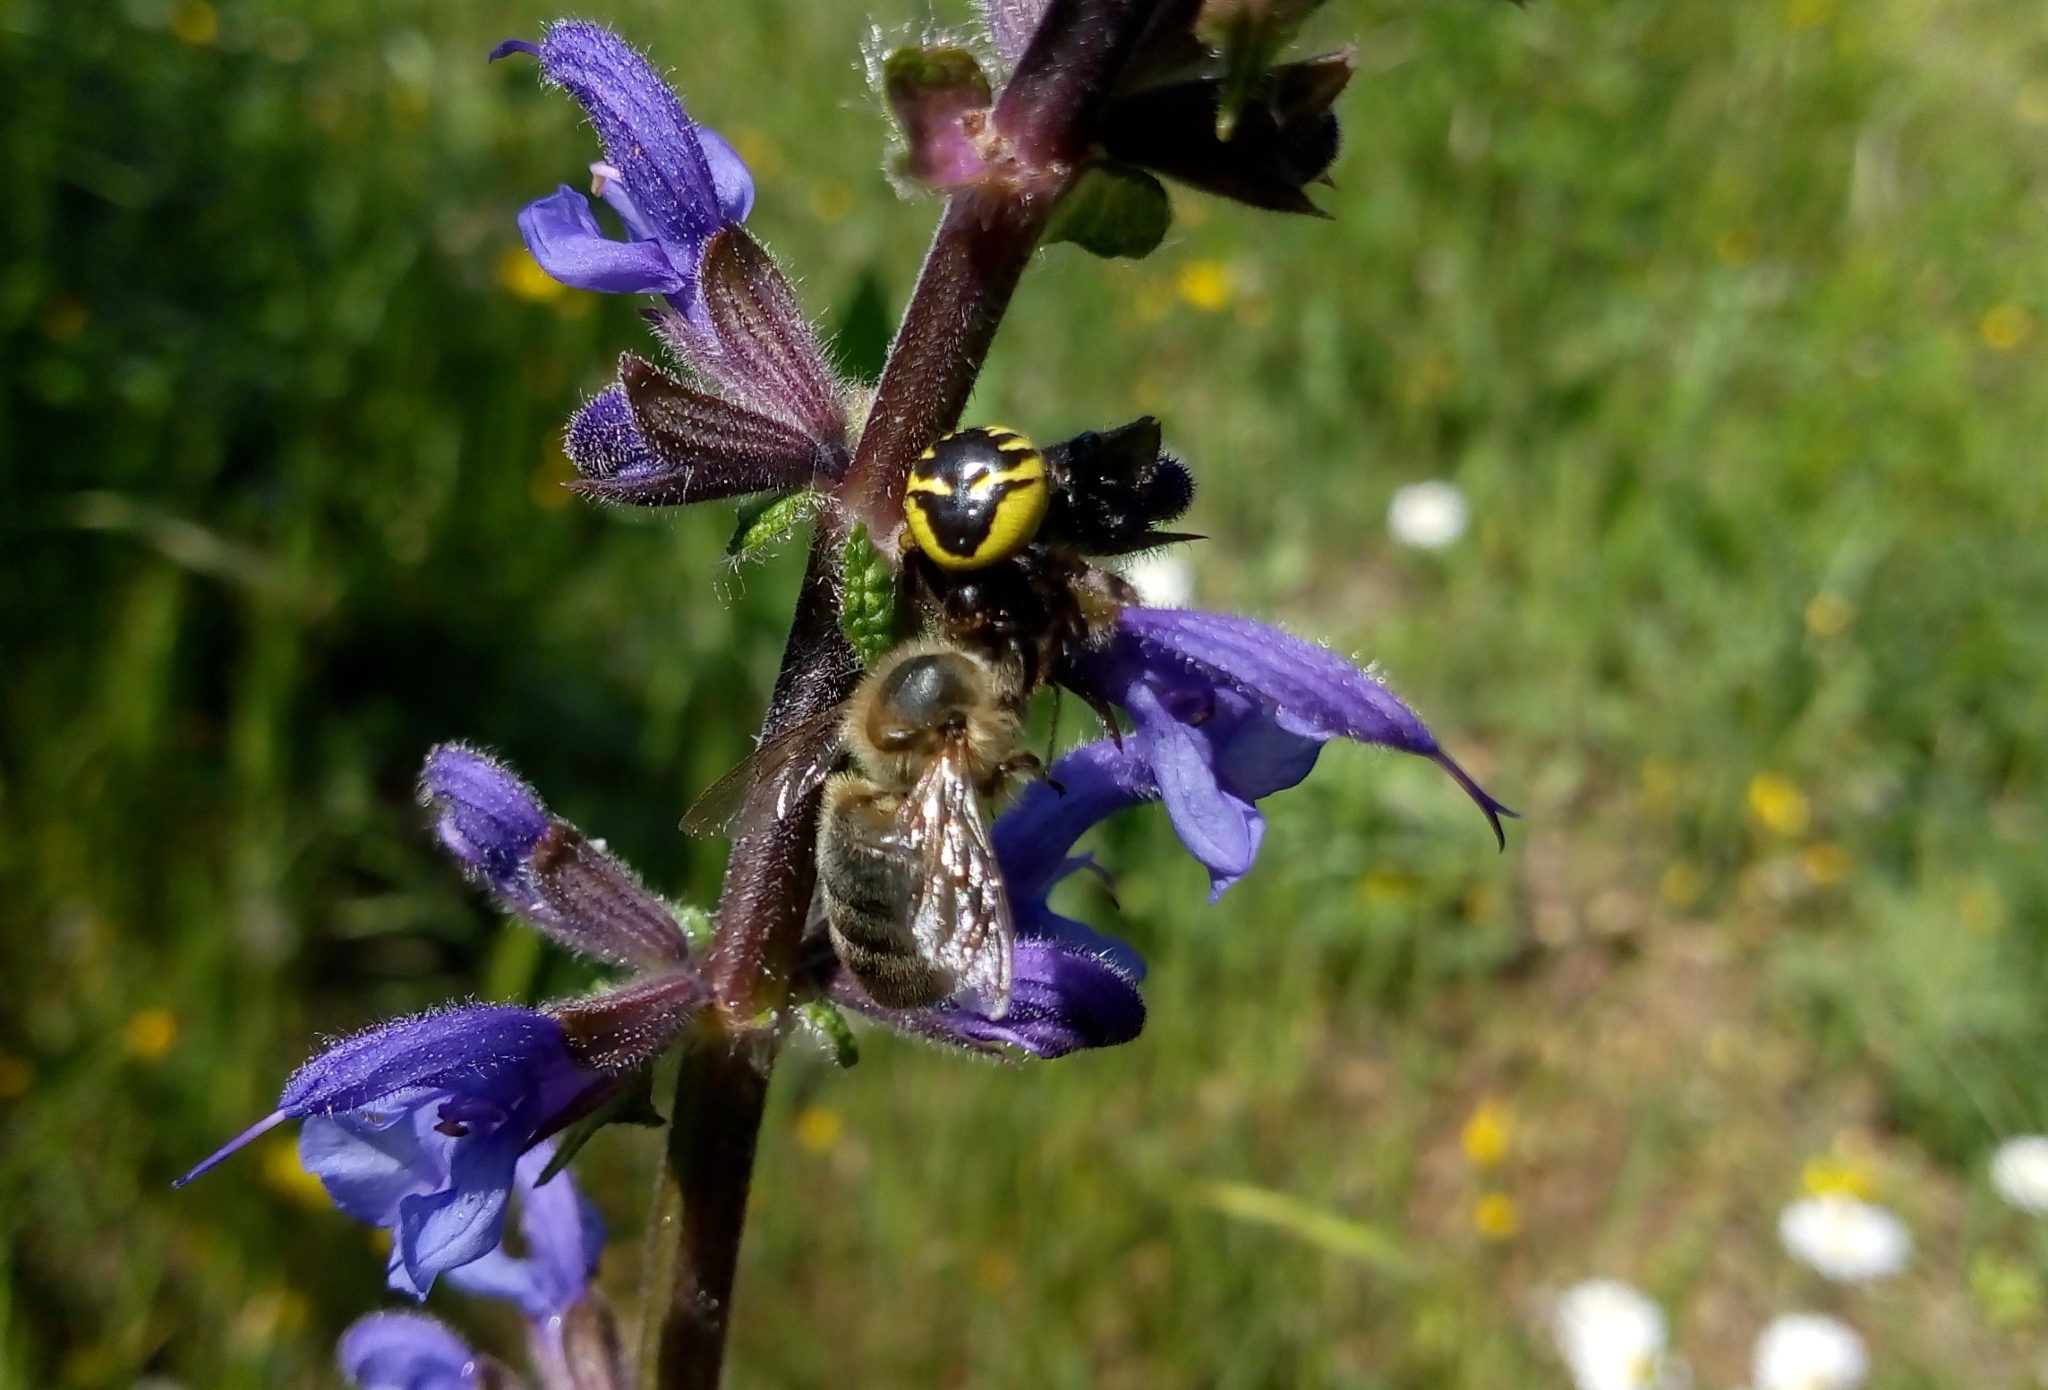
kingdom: Animalia
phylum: Arthropoda
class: Arachnida
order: Araneae
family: Thomisidae
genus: Synema
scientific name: Synema globosum
